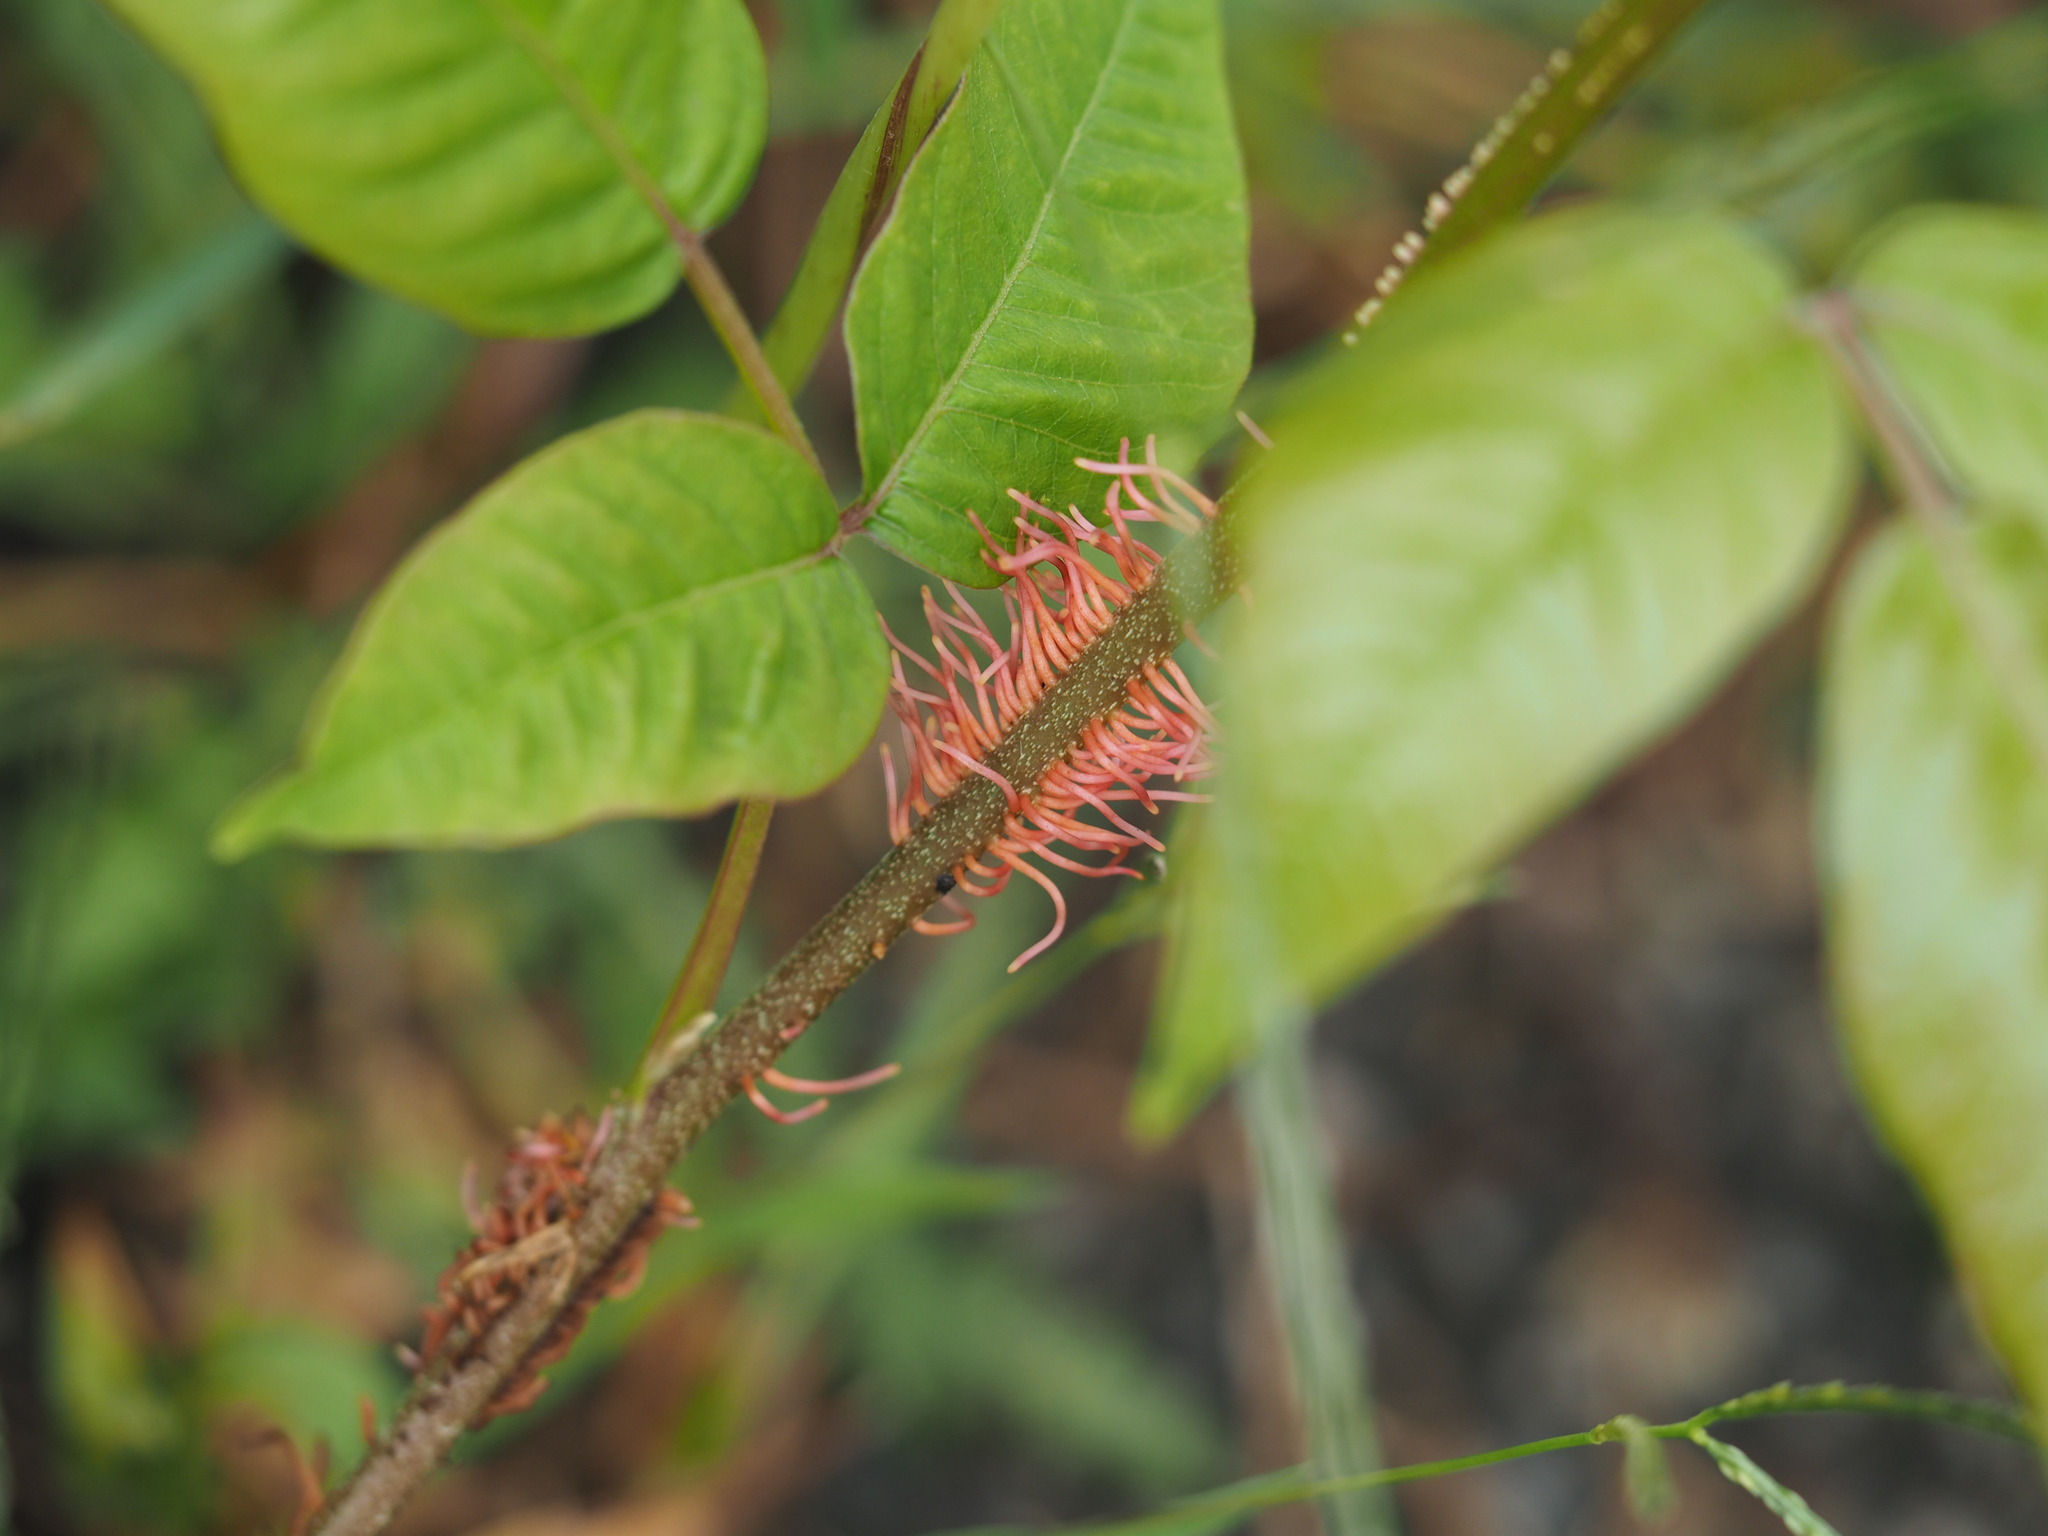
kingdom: Plantae
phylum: Tracheophyta
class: Magnoliopsida
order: Sapindales
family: Anacardiaceae
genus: Toxicodendron
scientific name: Toxicodendron radicans
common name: Poison ivy
